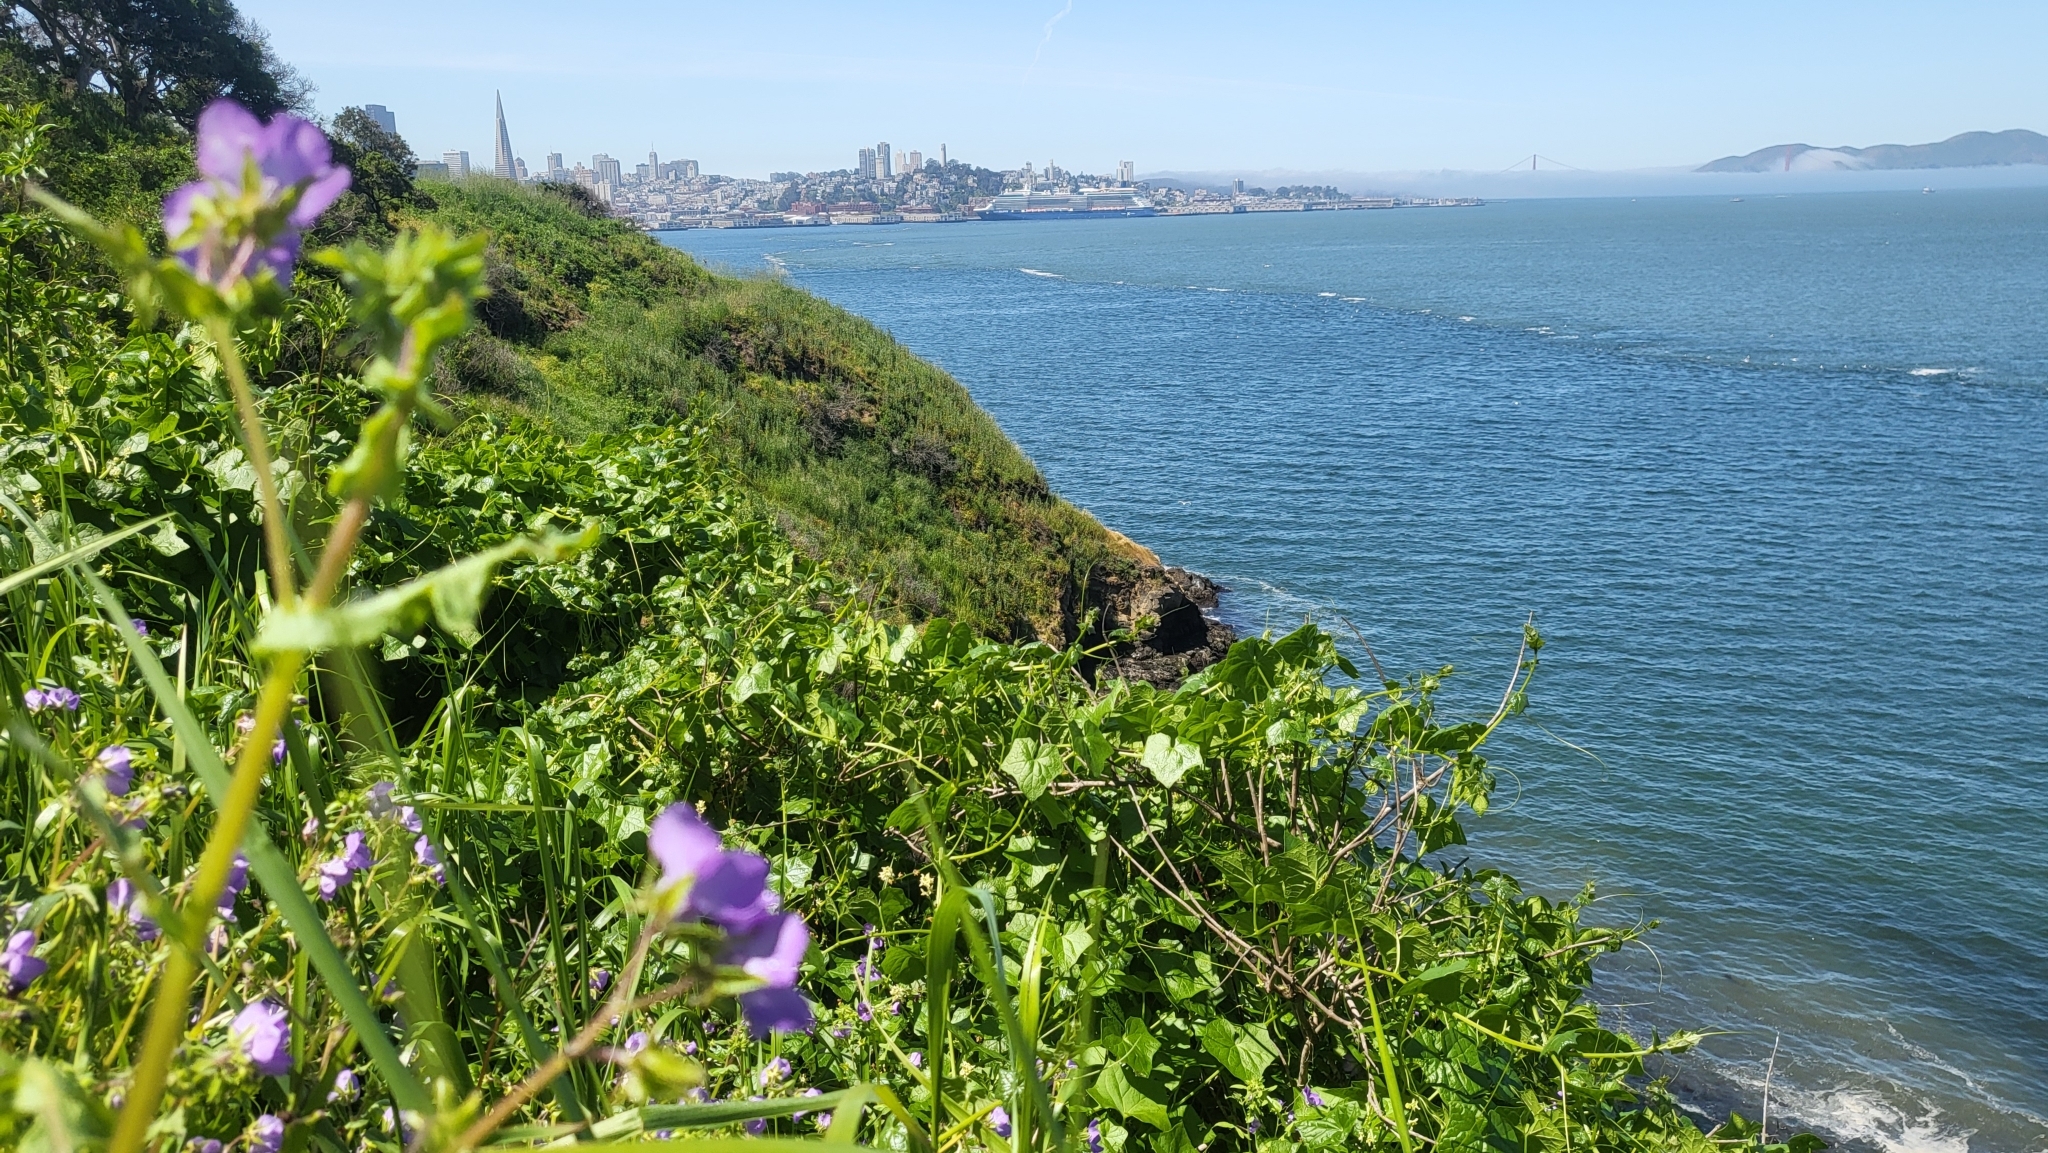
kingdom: Plantae
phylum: Tracheophyta
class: Magnoliopsida
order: Boraginales
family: Hydrophyllaceae
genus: Pholistoma
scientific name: Pholistoma auritum
